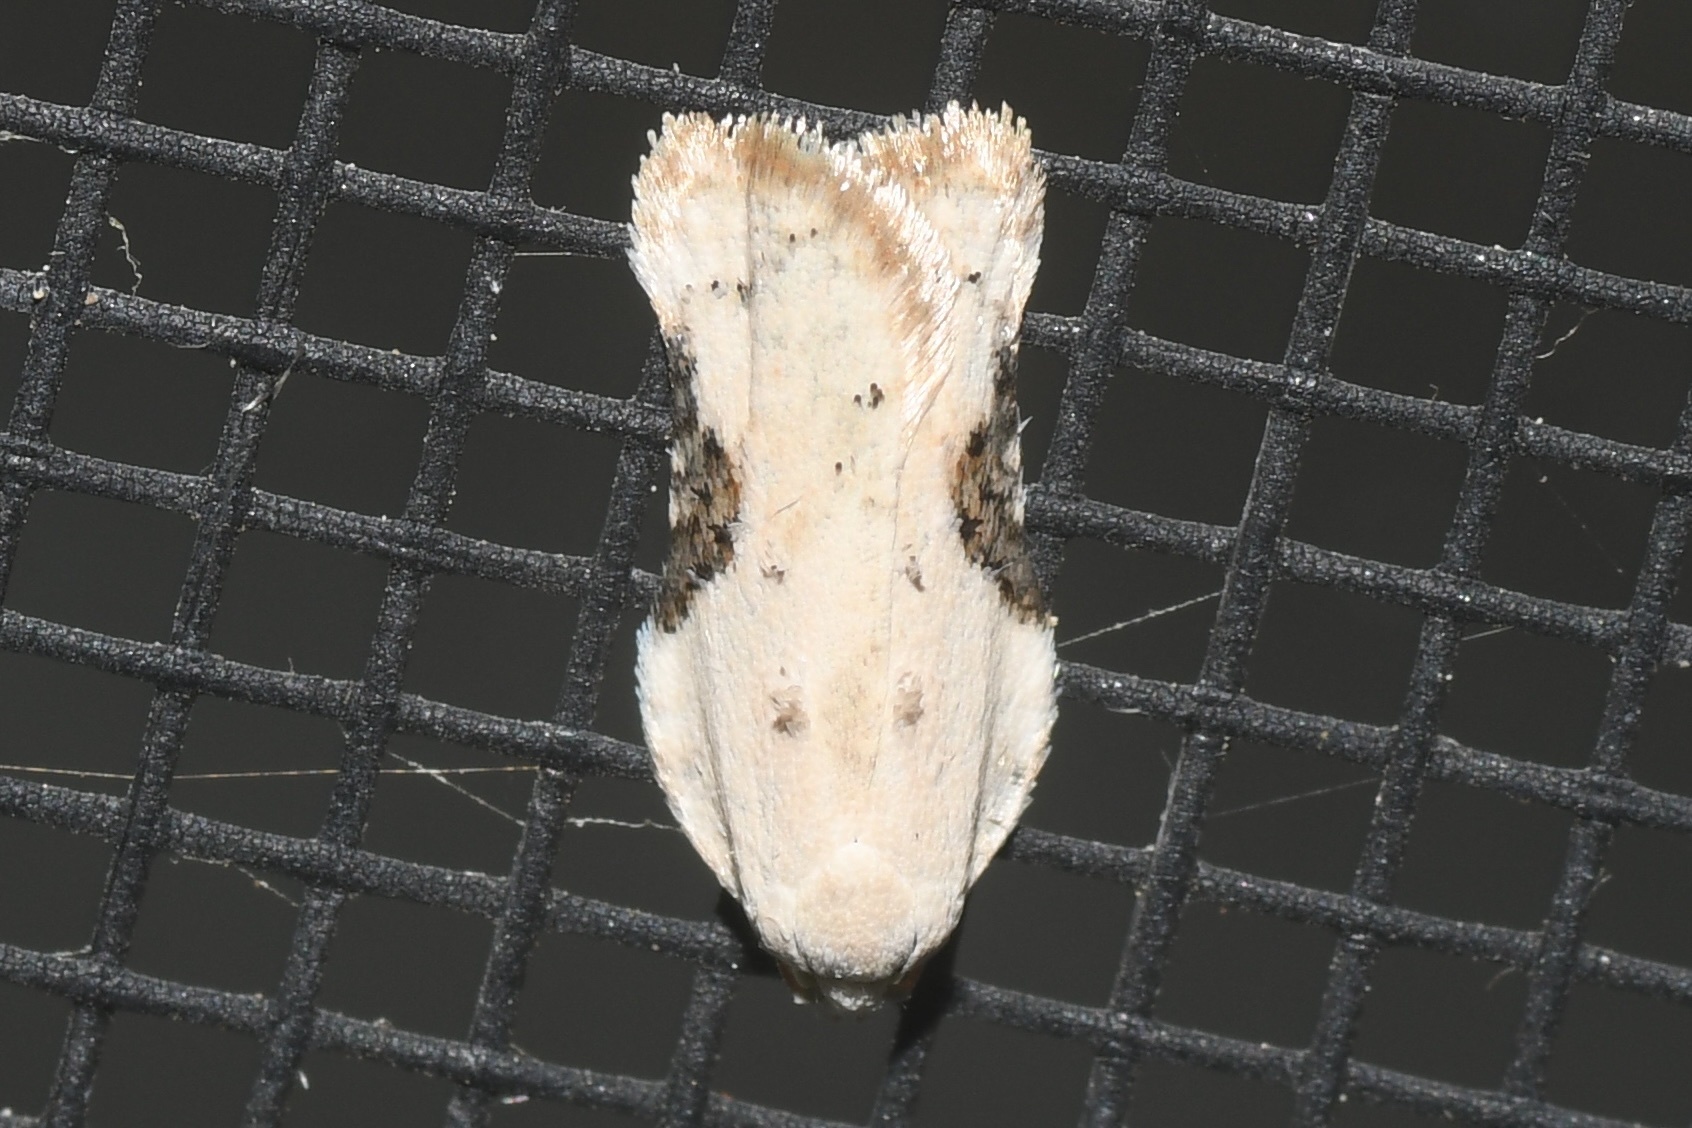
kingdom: Animalia
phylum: Arthropoda
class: Insecta
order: Lepidoptera
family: Tortricidae
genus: Acleris
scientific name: Acleris subnivana
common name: Bent-winged acleris moth
